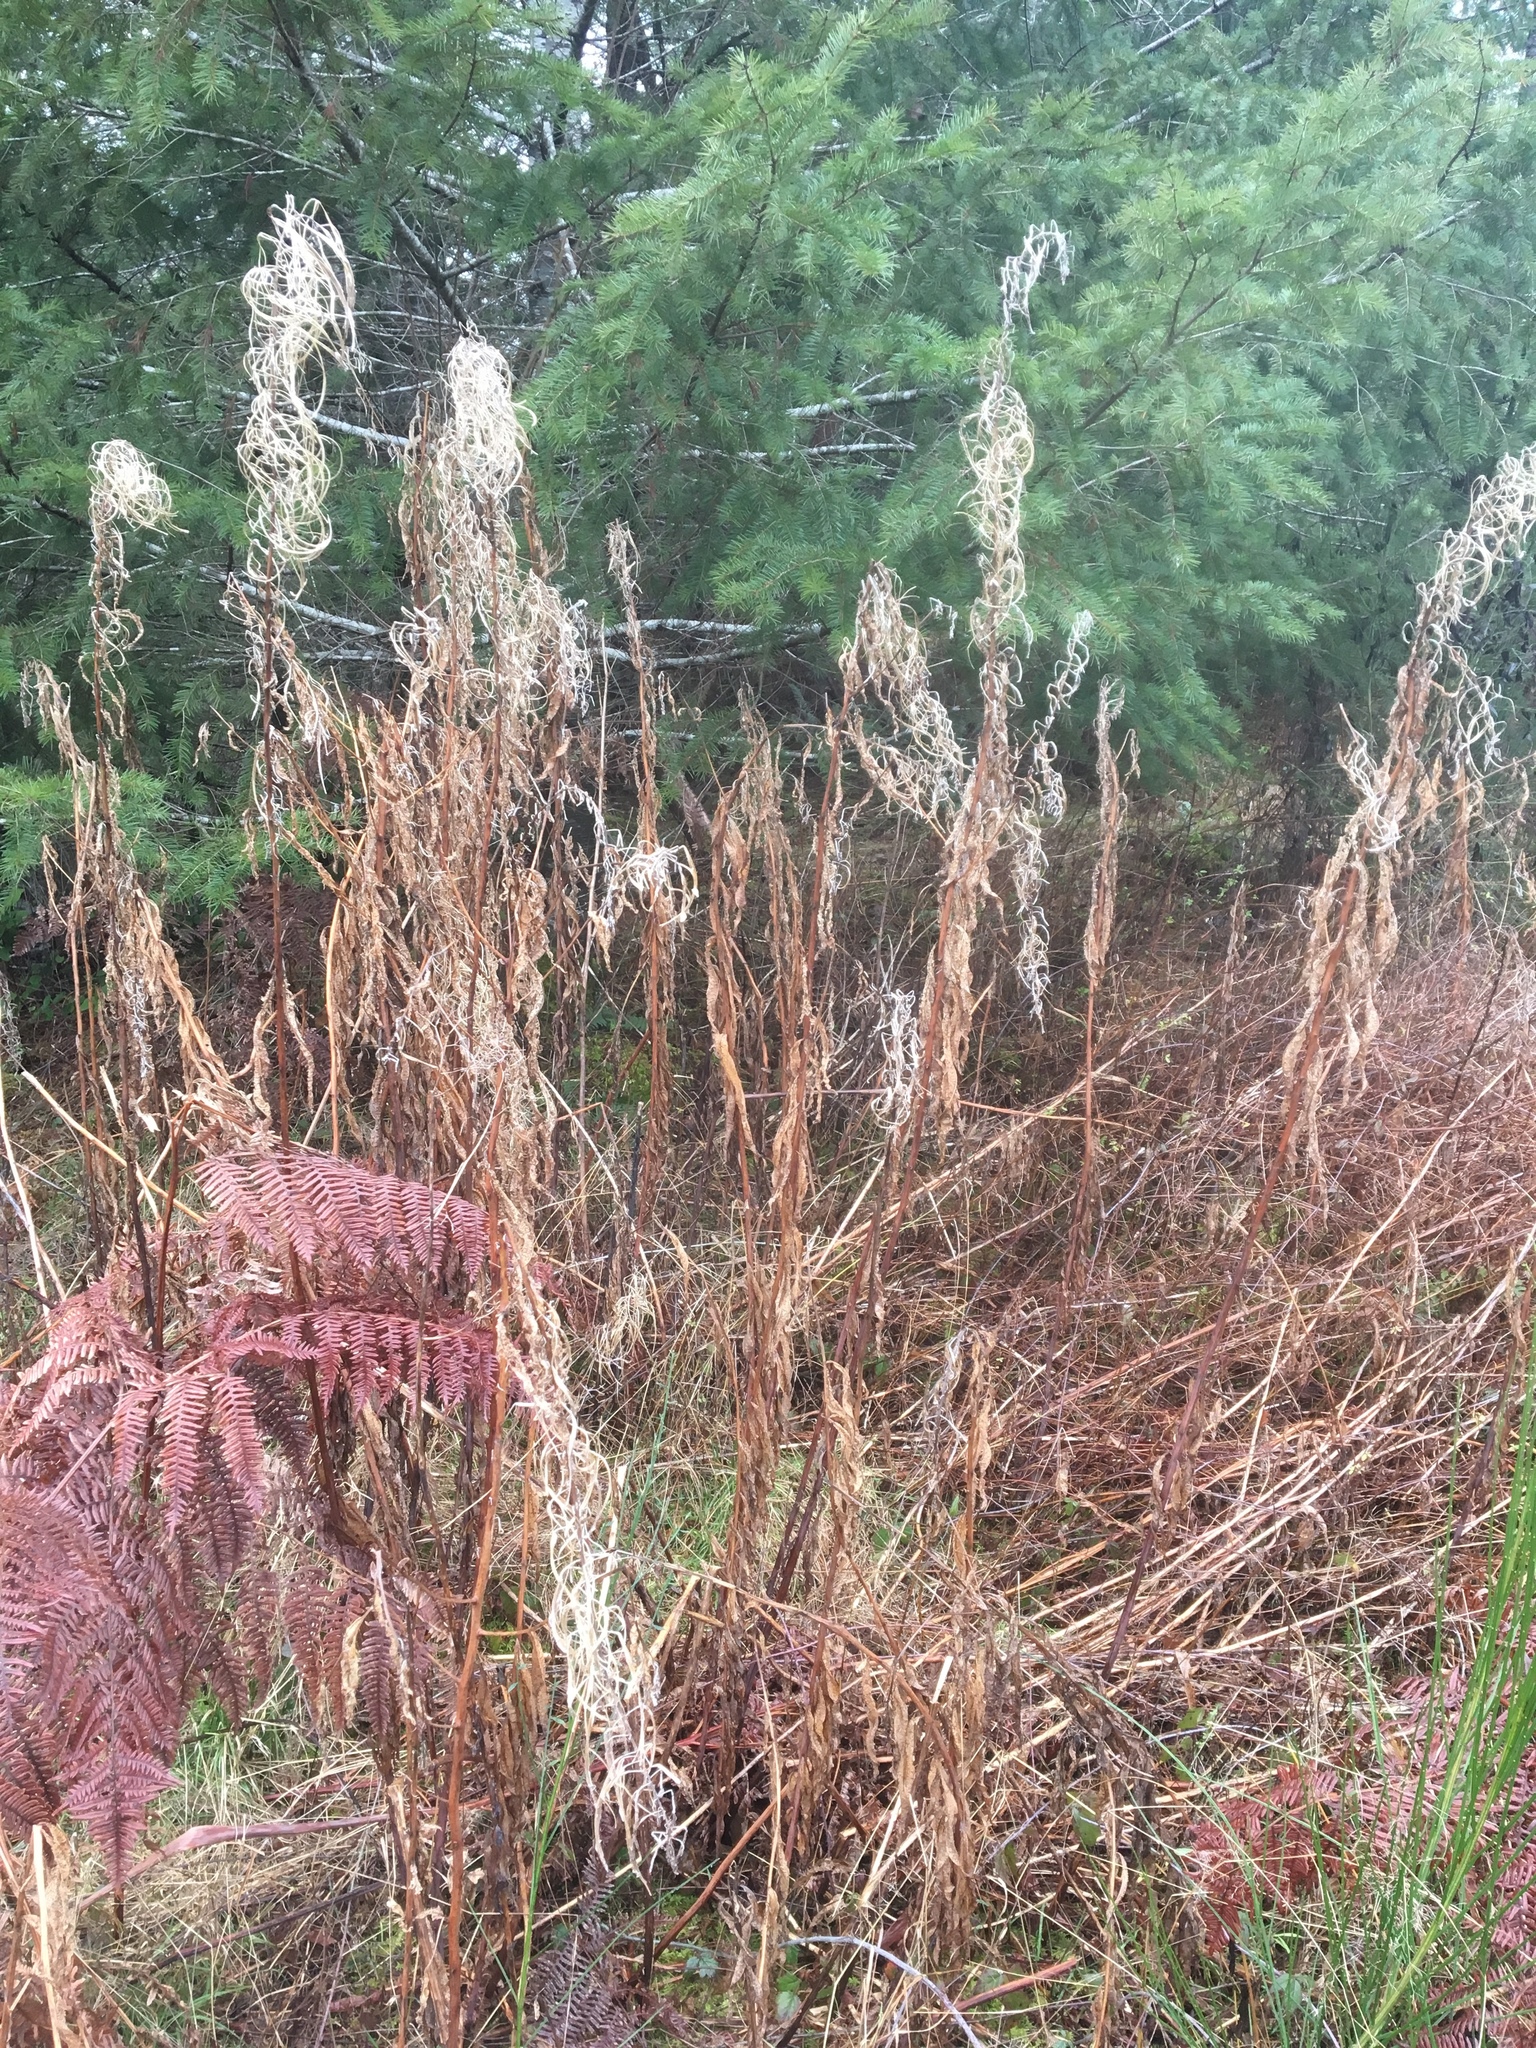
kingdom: Plantae
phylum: Tracheophyta
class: Magnoliopsida
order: Myrtales
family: Onagraceae
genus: Chamaenerion
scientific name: Chamaenerion angustifolium
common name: Fireweed
